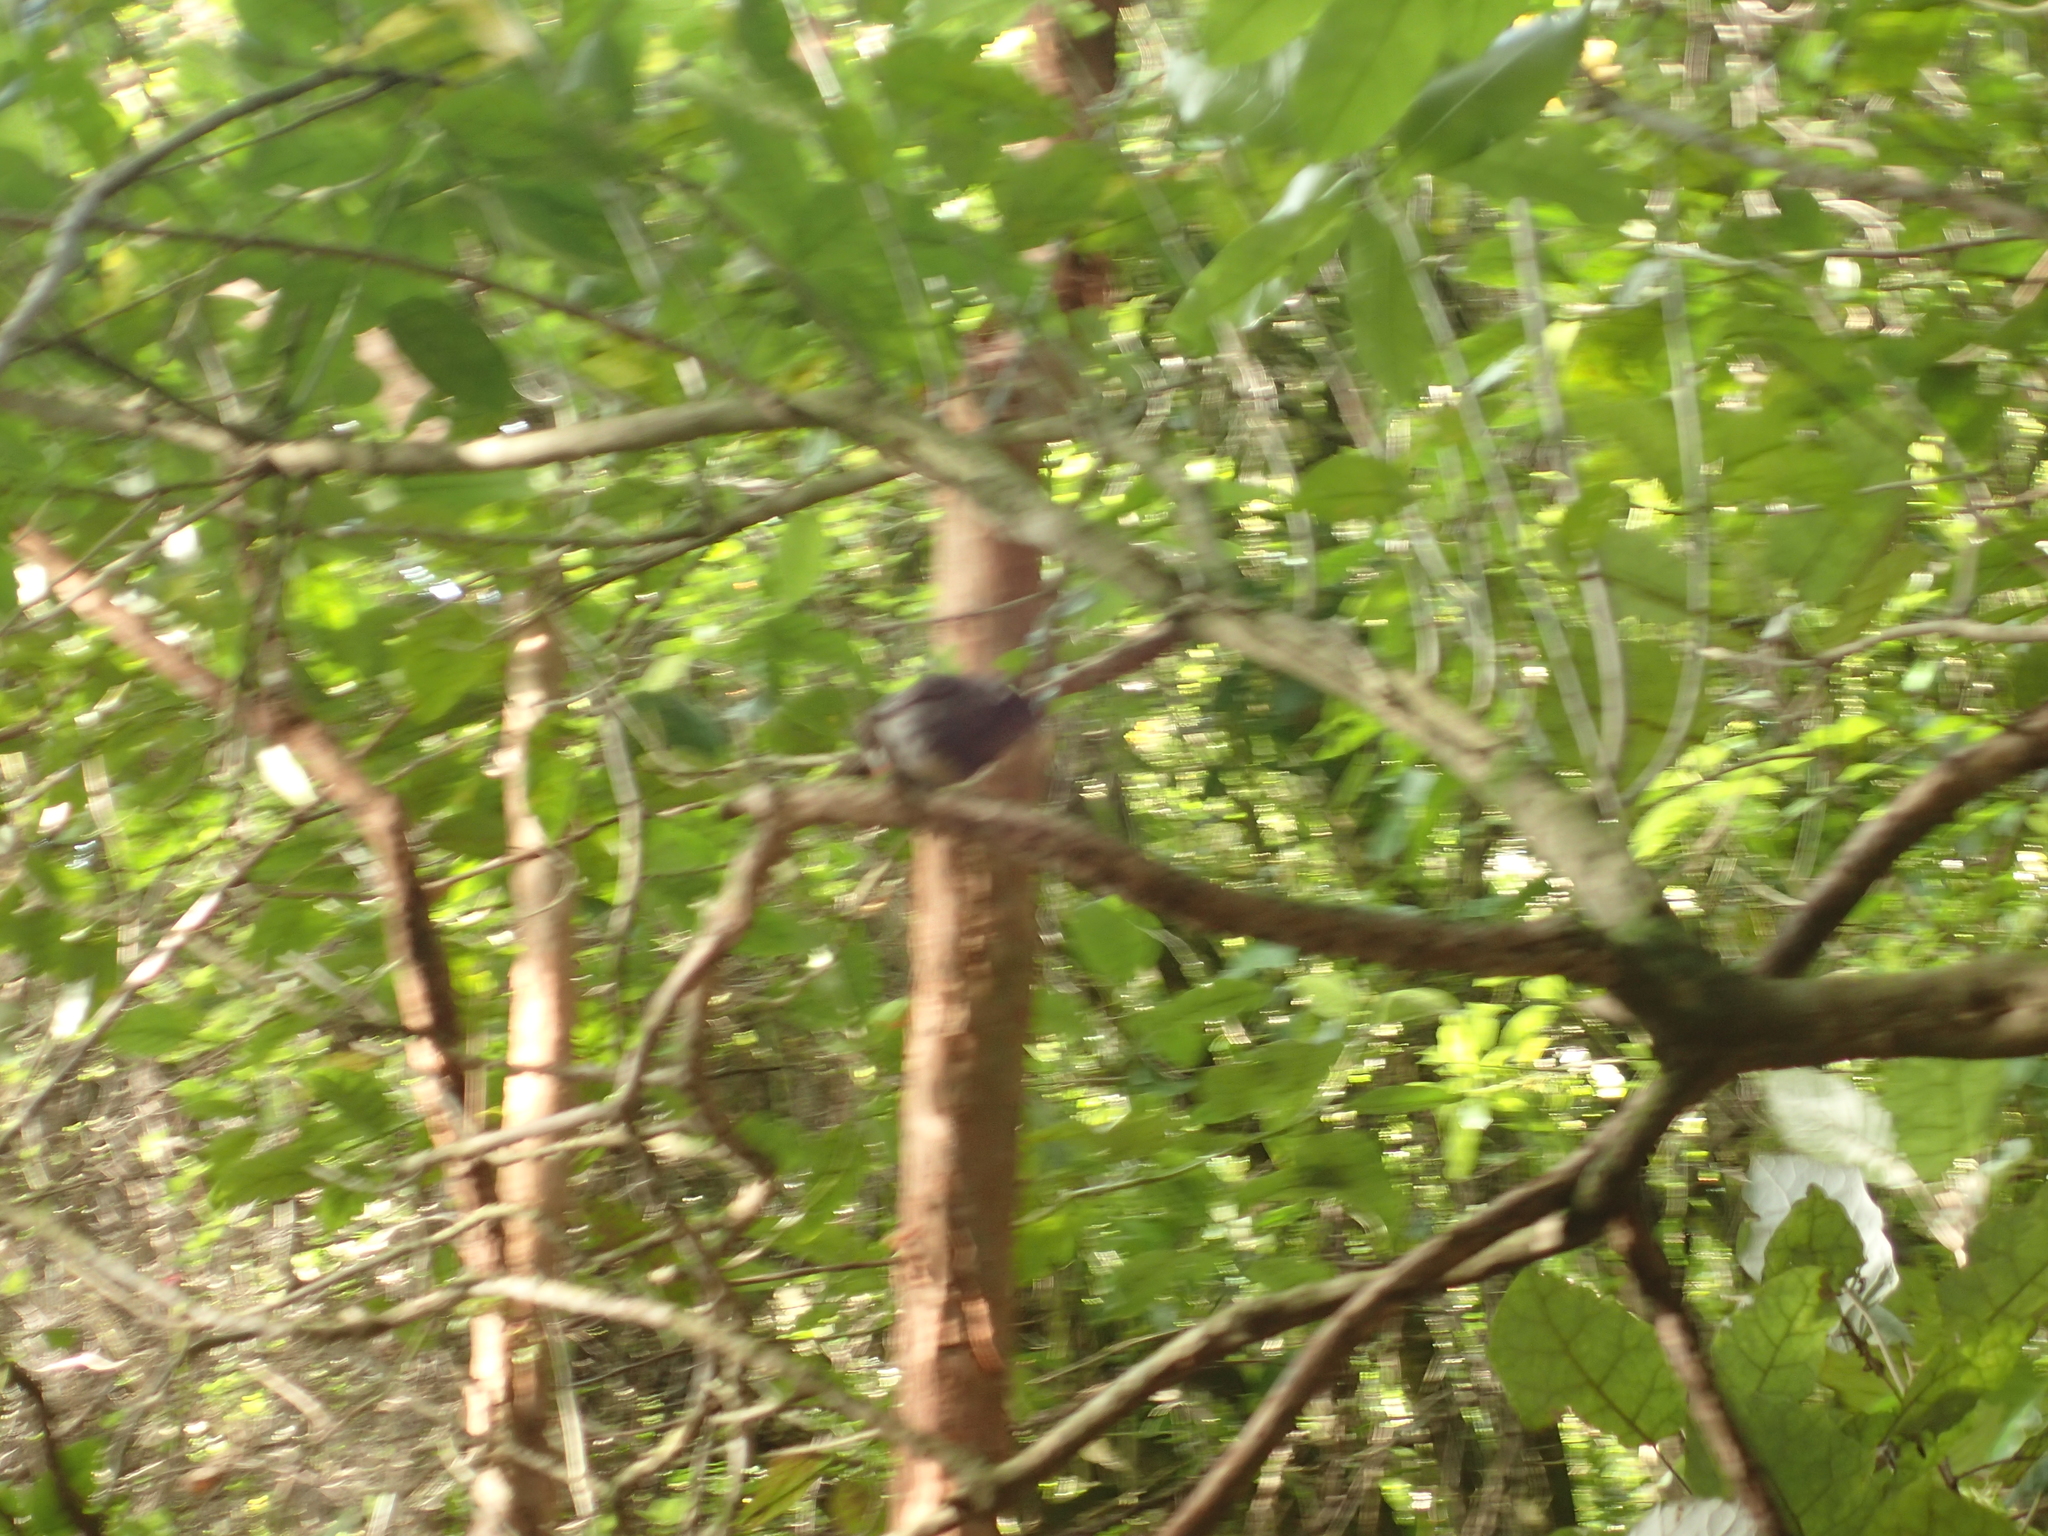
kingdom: Animalia
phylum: Chordata
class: Aves
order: Passeriformes
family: Petroicidae
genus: Petroica
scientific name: Petroica australis
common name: New zealand robin
